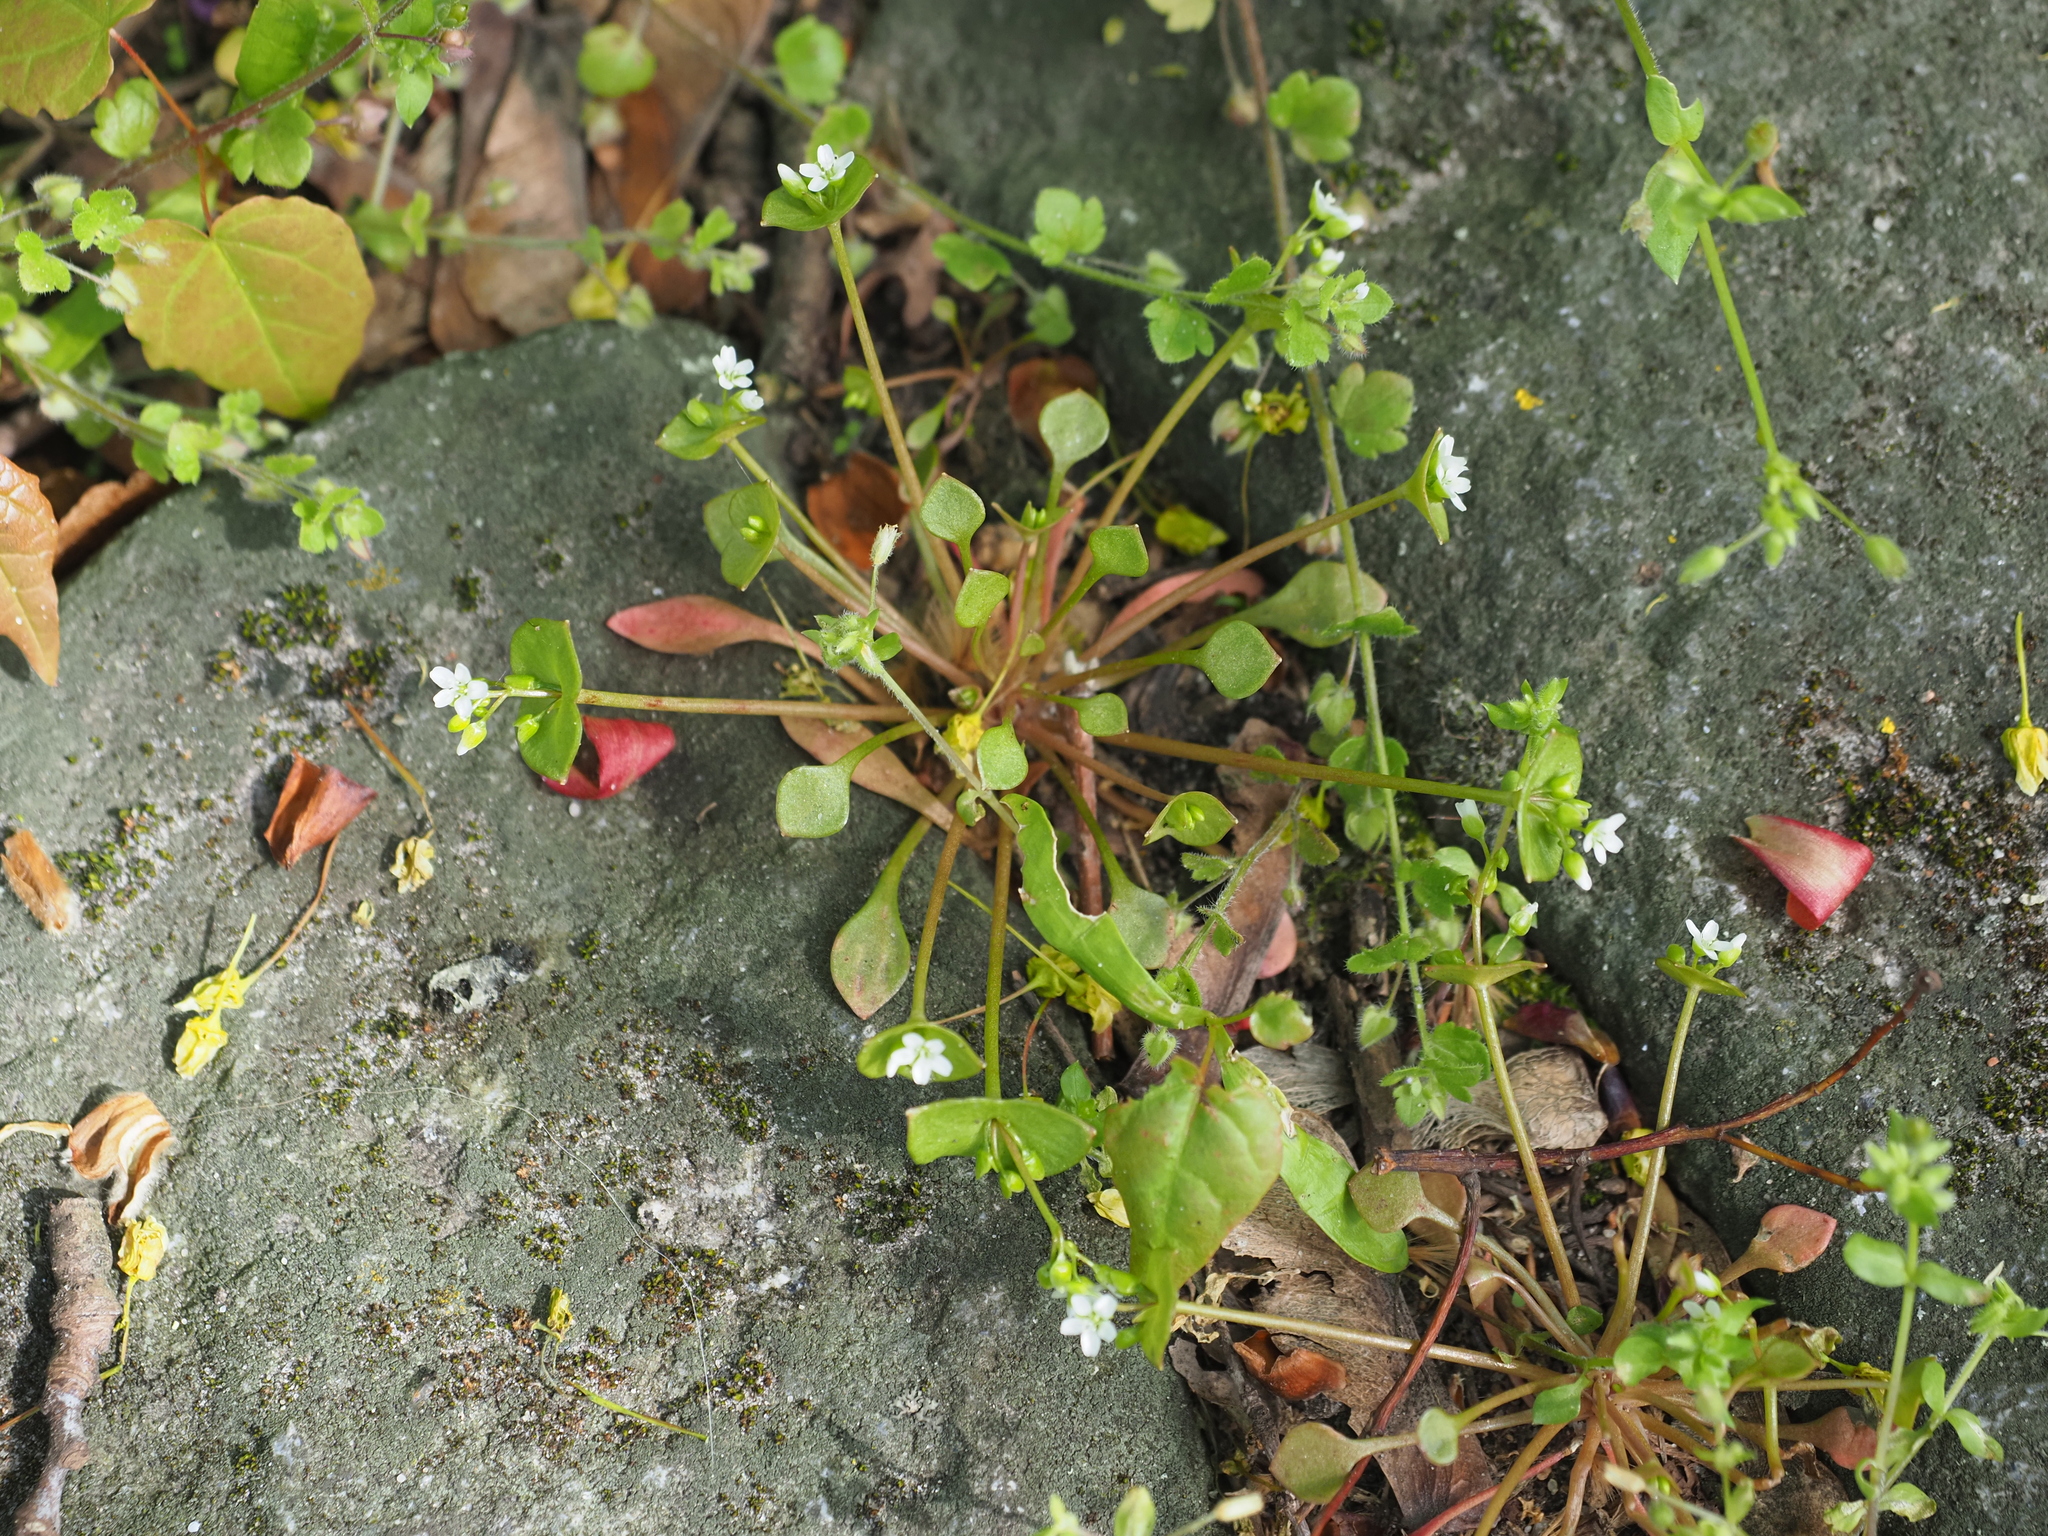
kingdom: Plantae
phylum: Tracheophyta
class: Magnoliopsida
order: Caryophyllales
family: Montiaceae
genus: Claytonia
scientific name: Claytonia perfoliata
